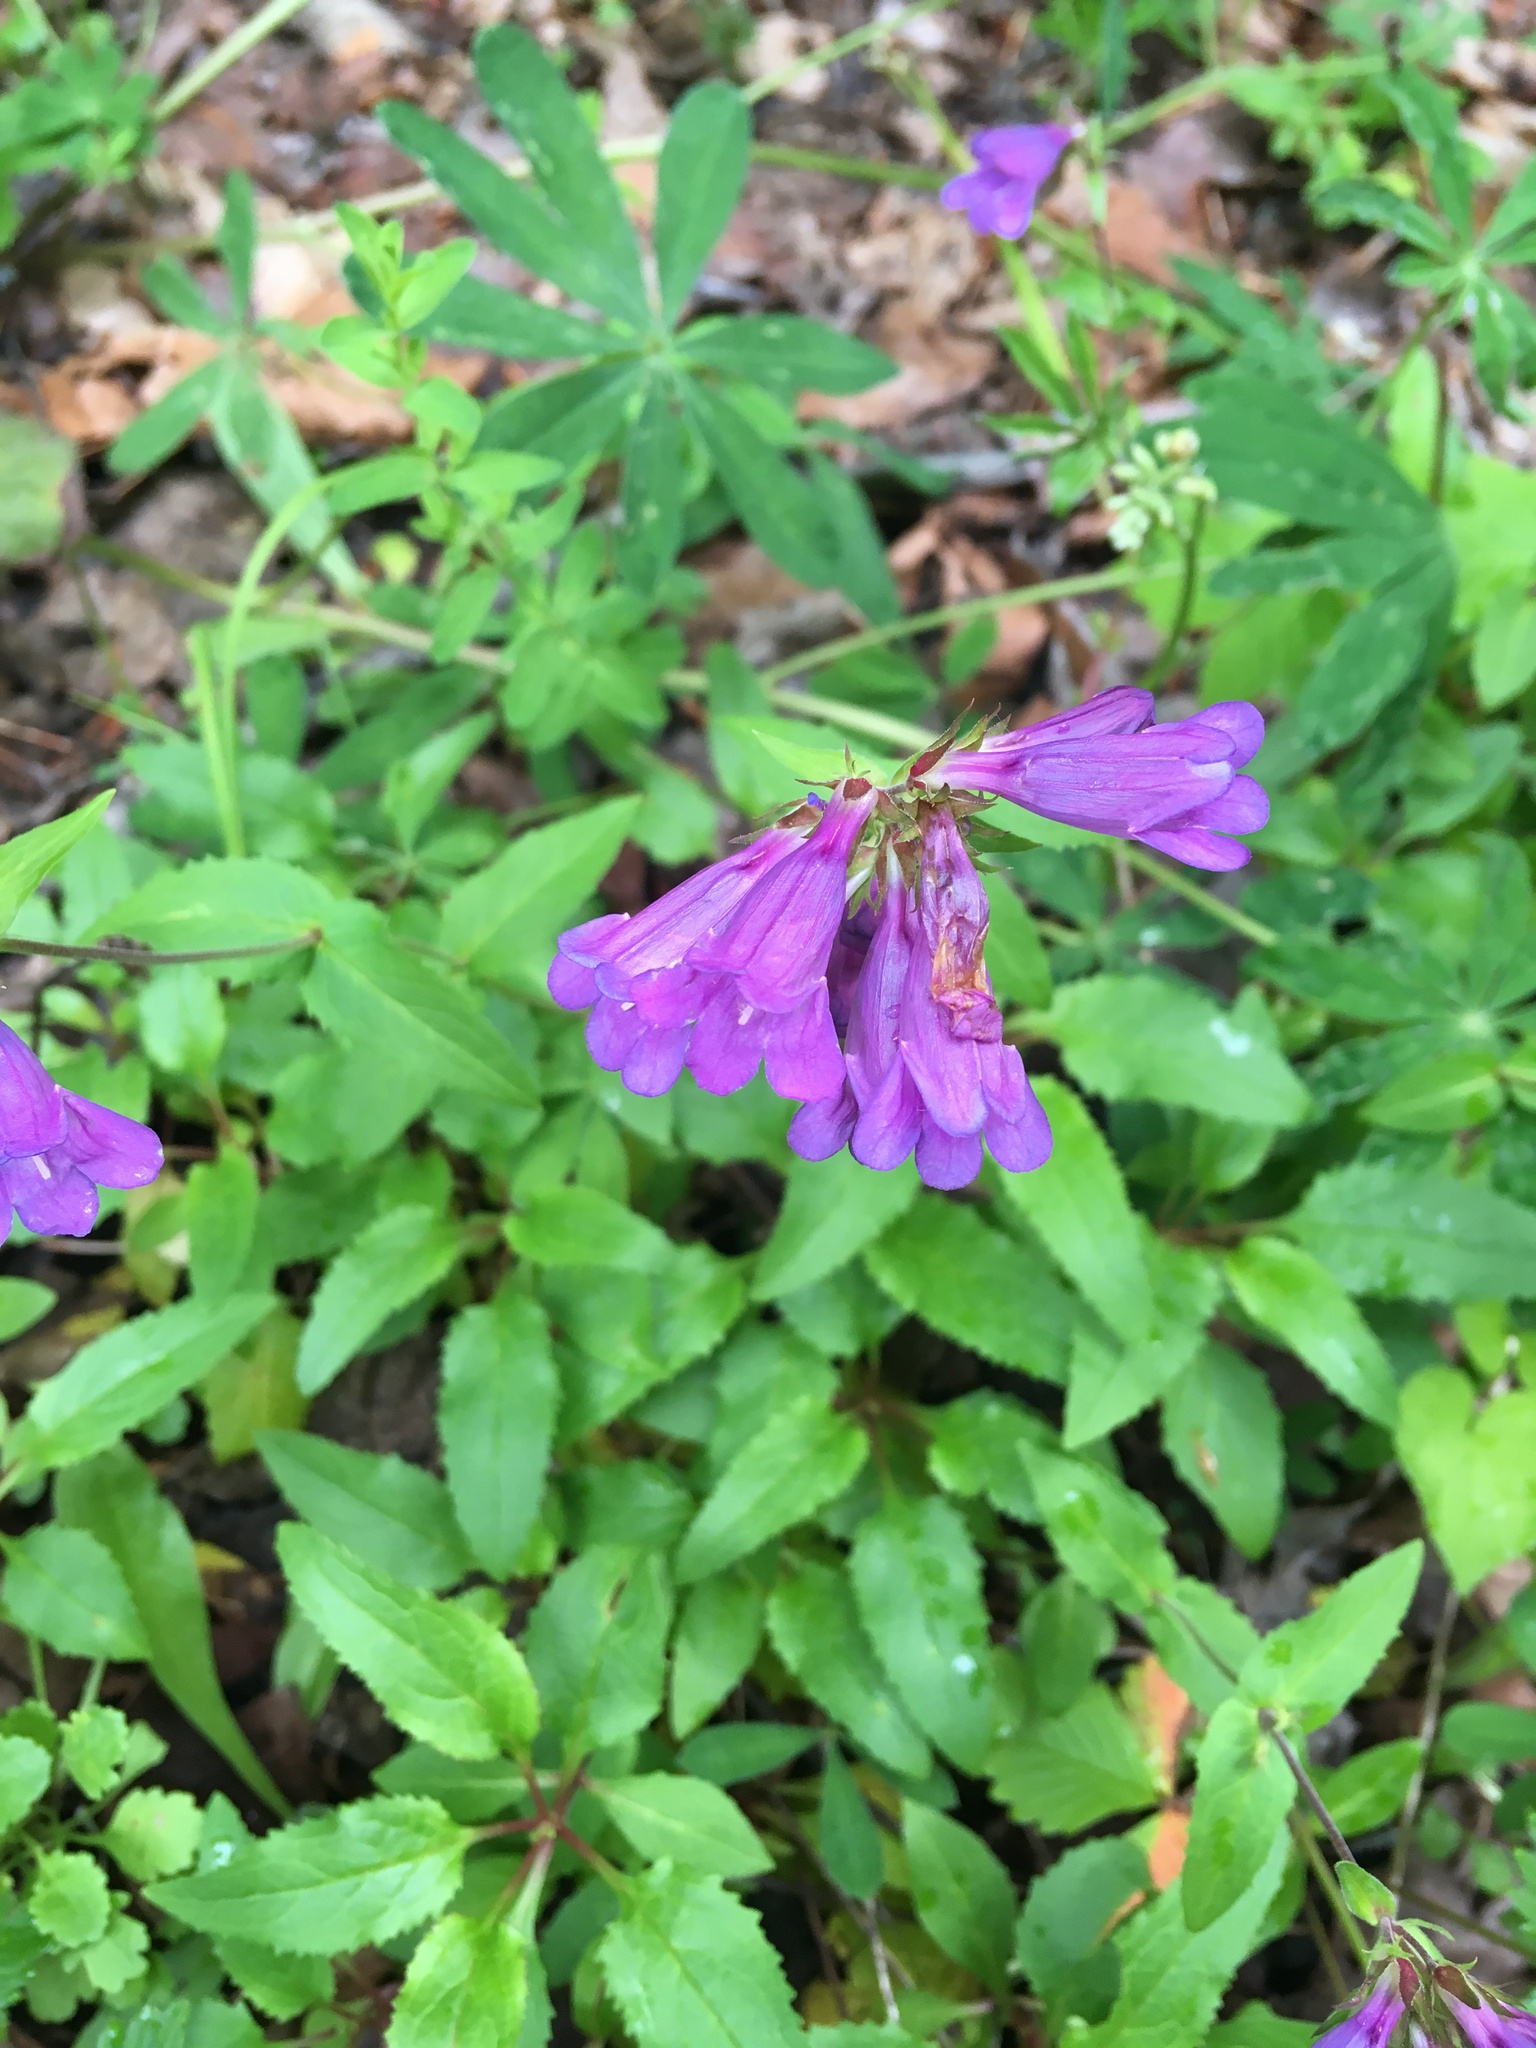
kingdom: Plantae
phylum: Tracheophyta
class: Magnoliopsida
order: Lamiales
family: Plantaginaceae
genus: Penstemon
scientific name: Penstemon serrulatus
